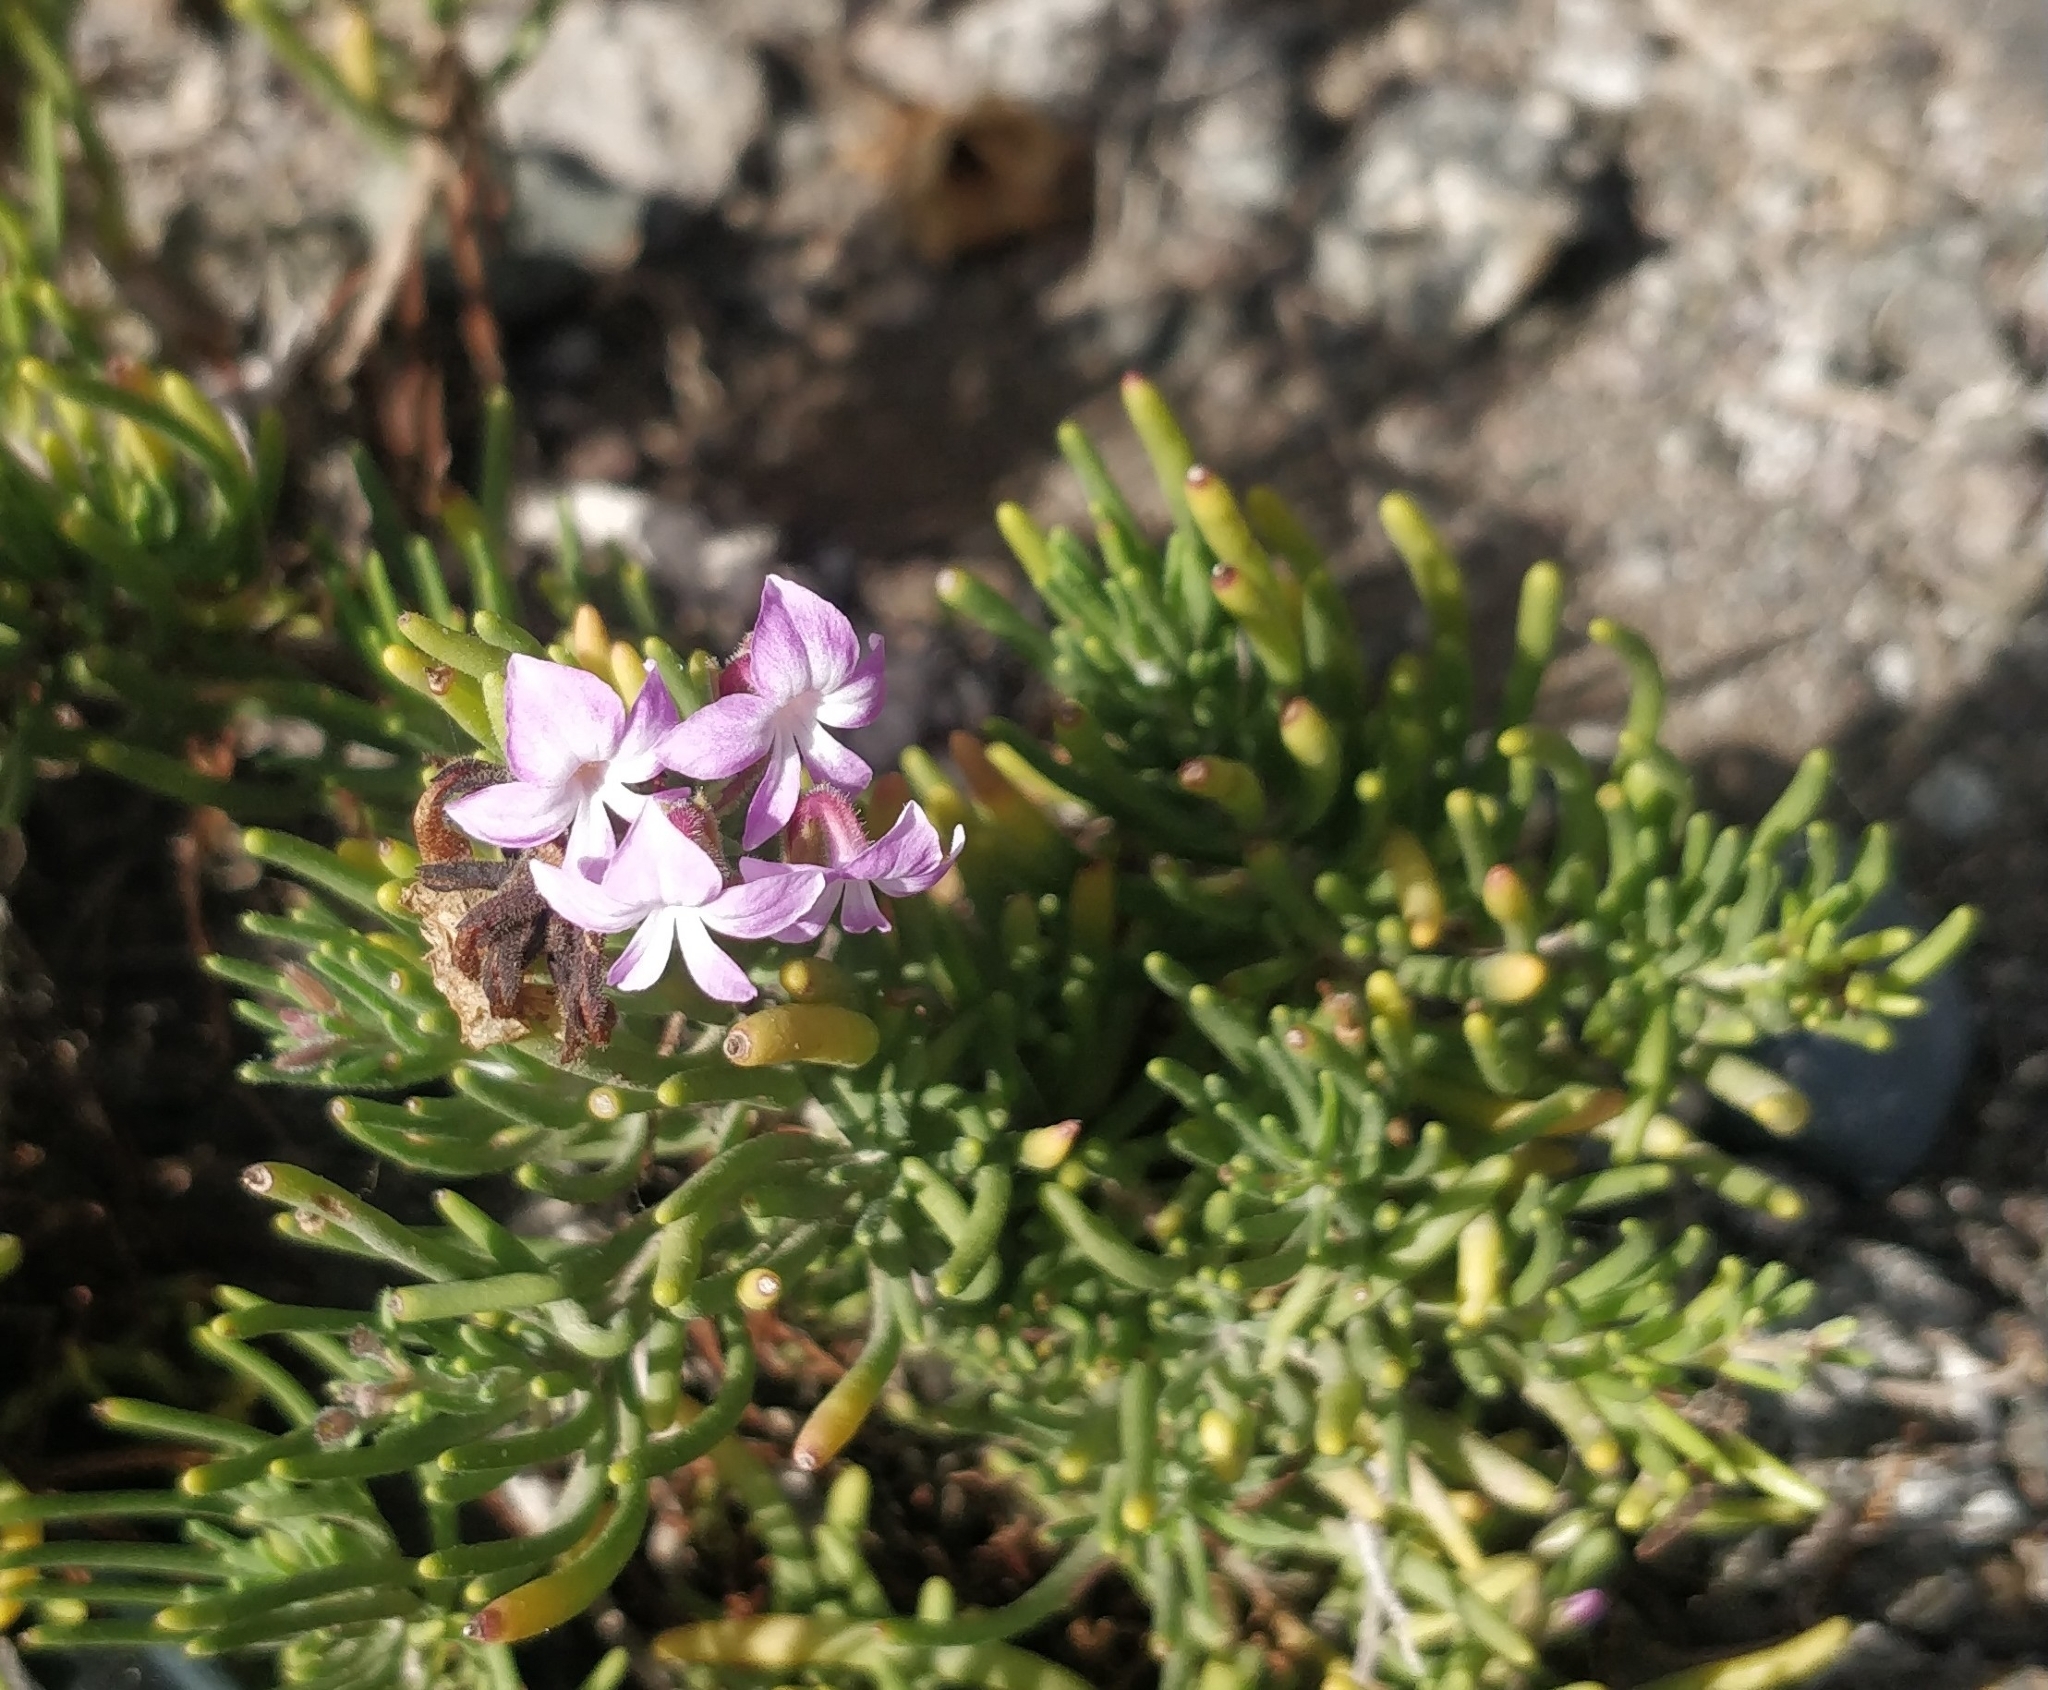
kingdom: Plantae
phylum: Tracheophyta
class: Magnoliopsida
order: Lamiales
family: Plantaginaceae
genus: Campylanthus
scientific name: Campylanthus salsoloides
